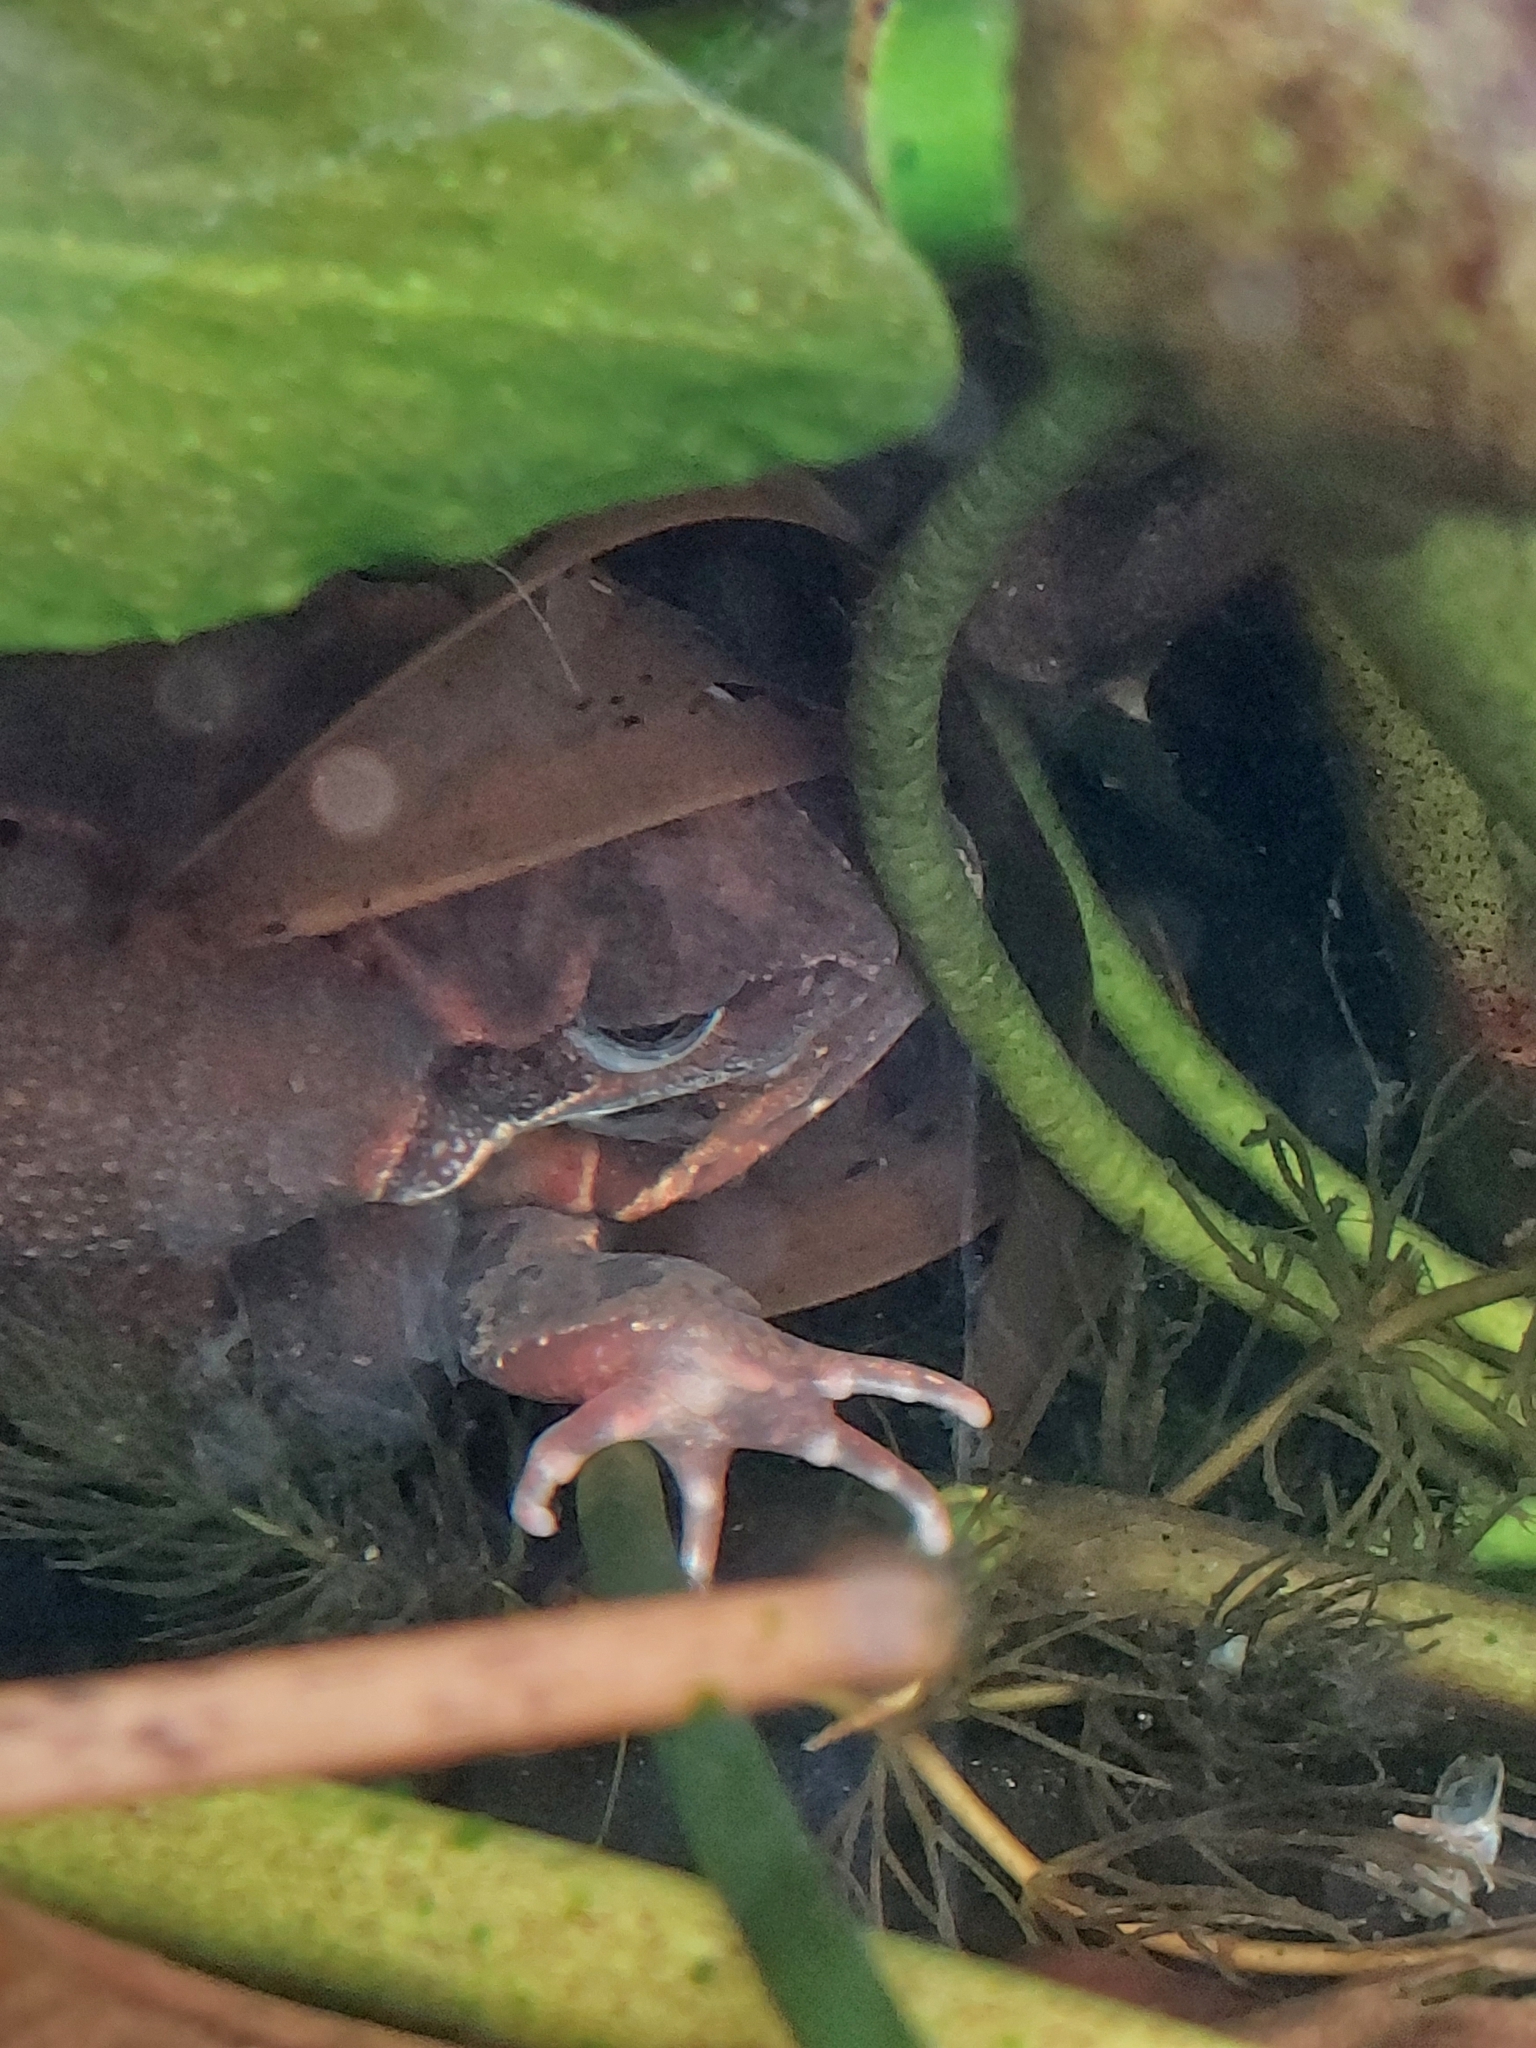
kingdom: Animalia
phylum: Chordata
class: Amphibia
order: Anura
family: Ranidae
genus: Rana
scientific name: Rana temporaria
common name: Common frog
